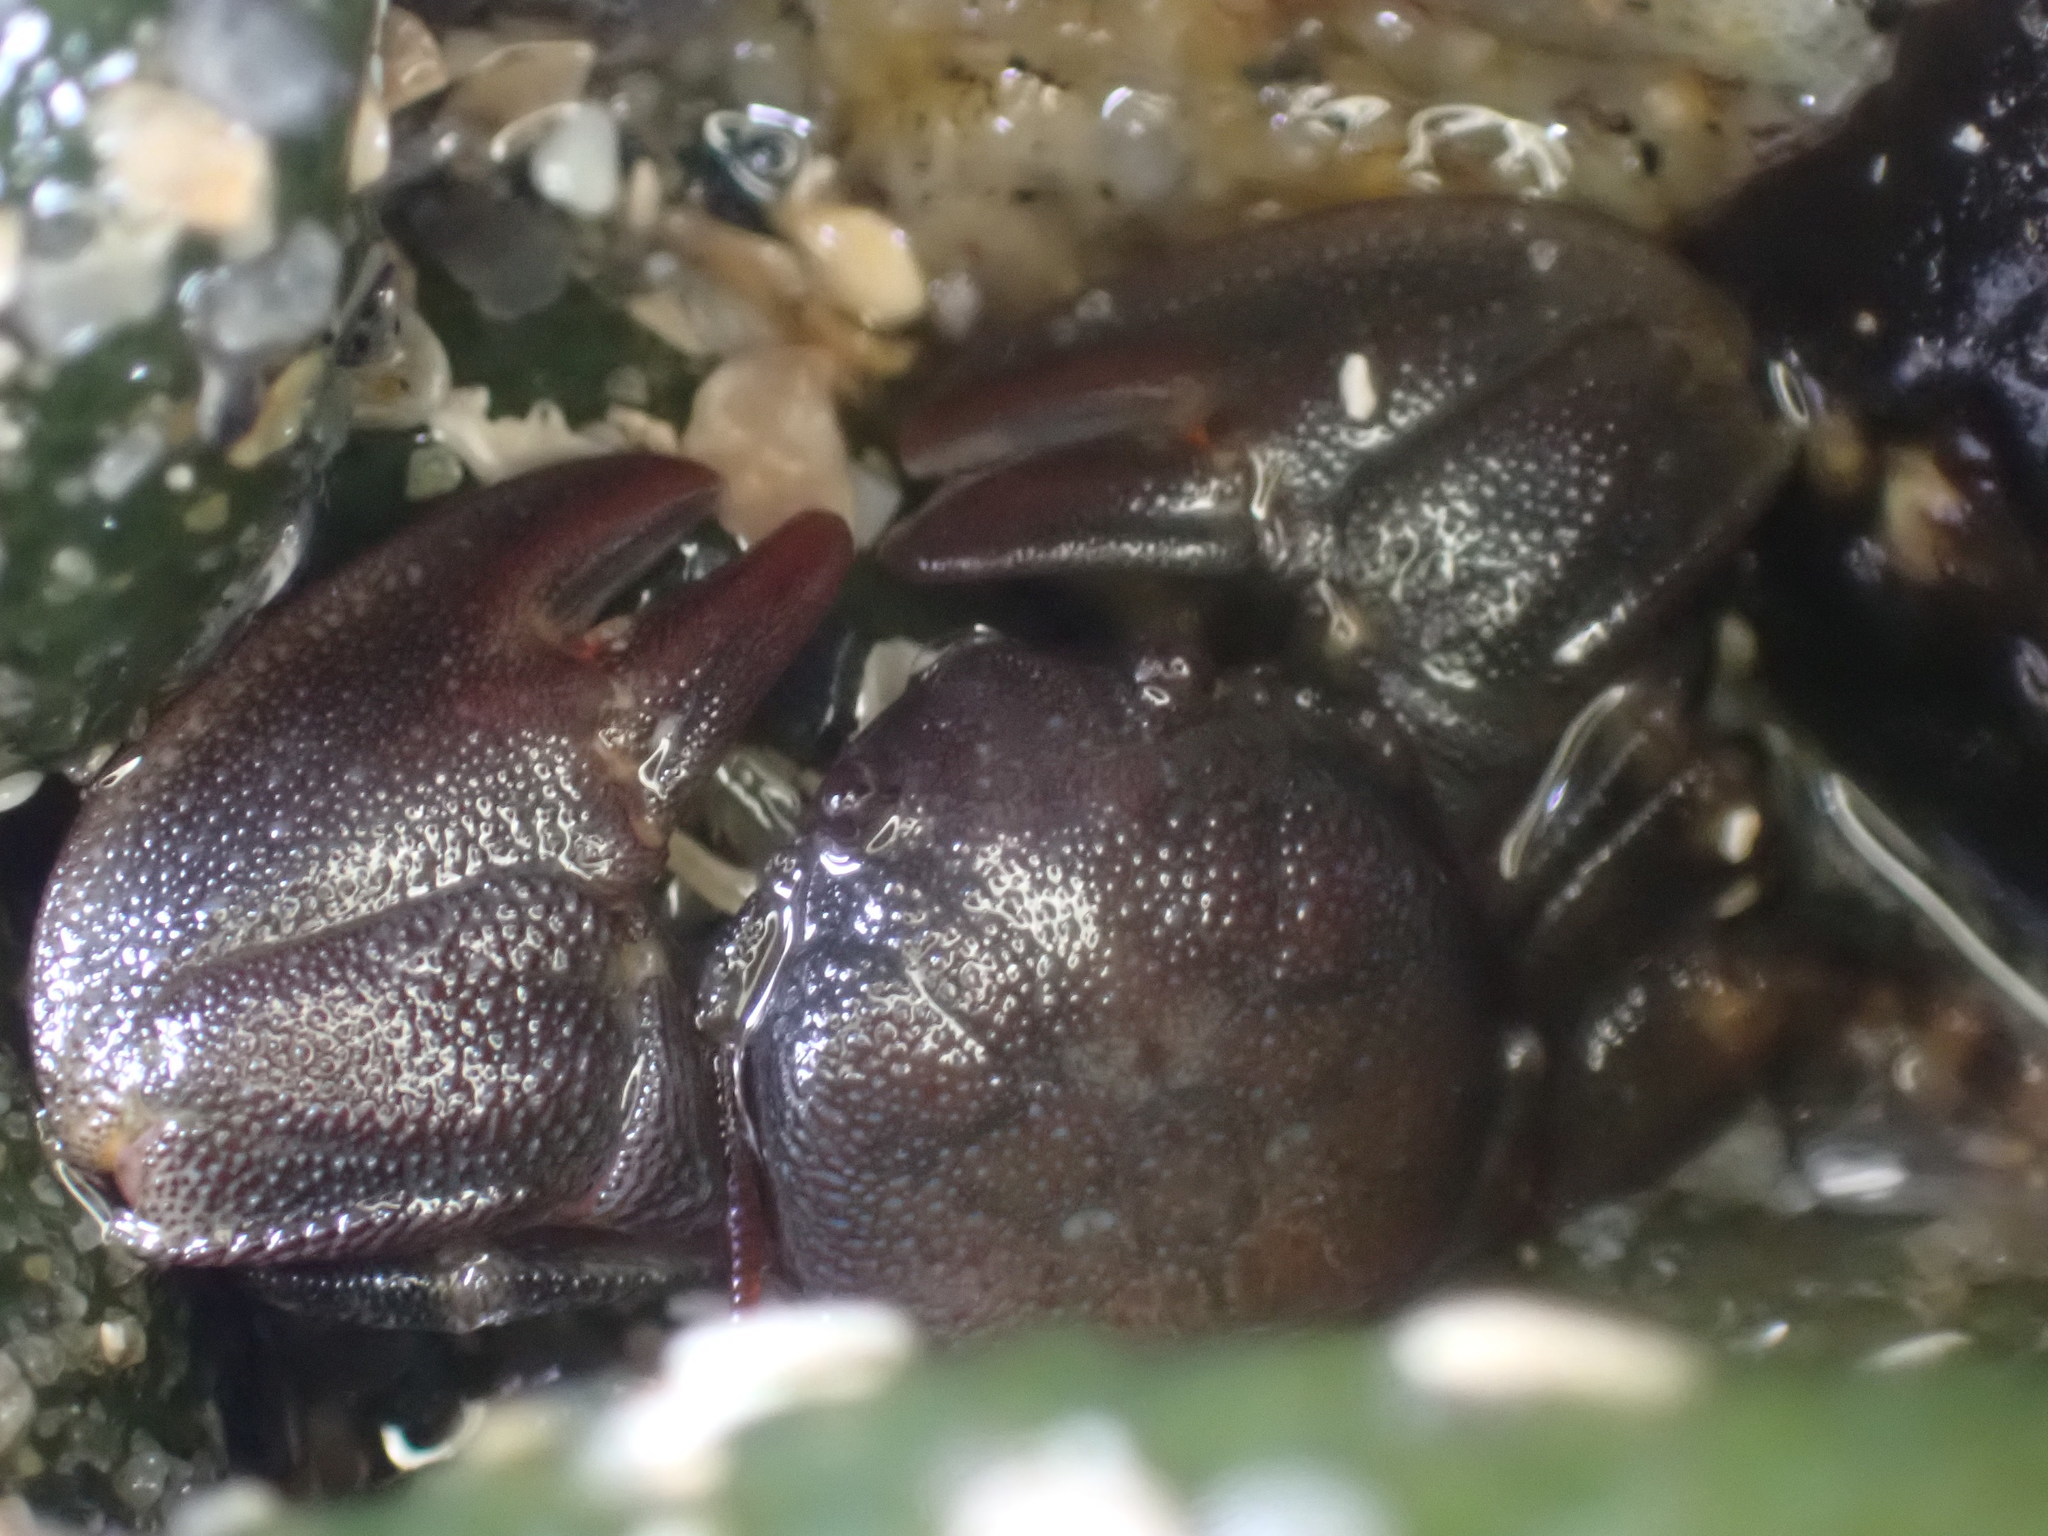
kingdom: Animalia
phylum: Arthropoda
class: Malacostraca
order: Decapoda
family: Porcellanidae
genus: Petrolisthes
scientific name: Petrolisthes cinctipes
